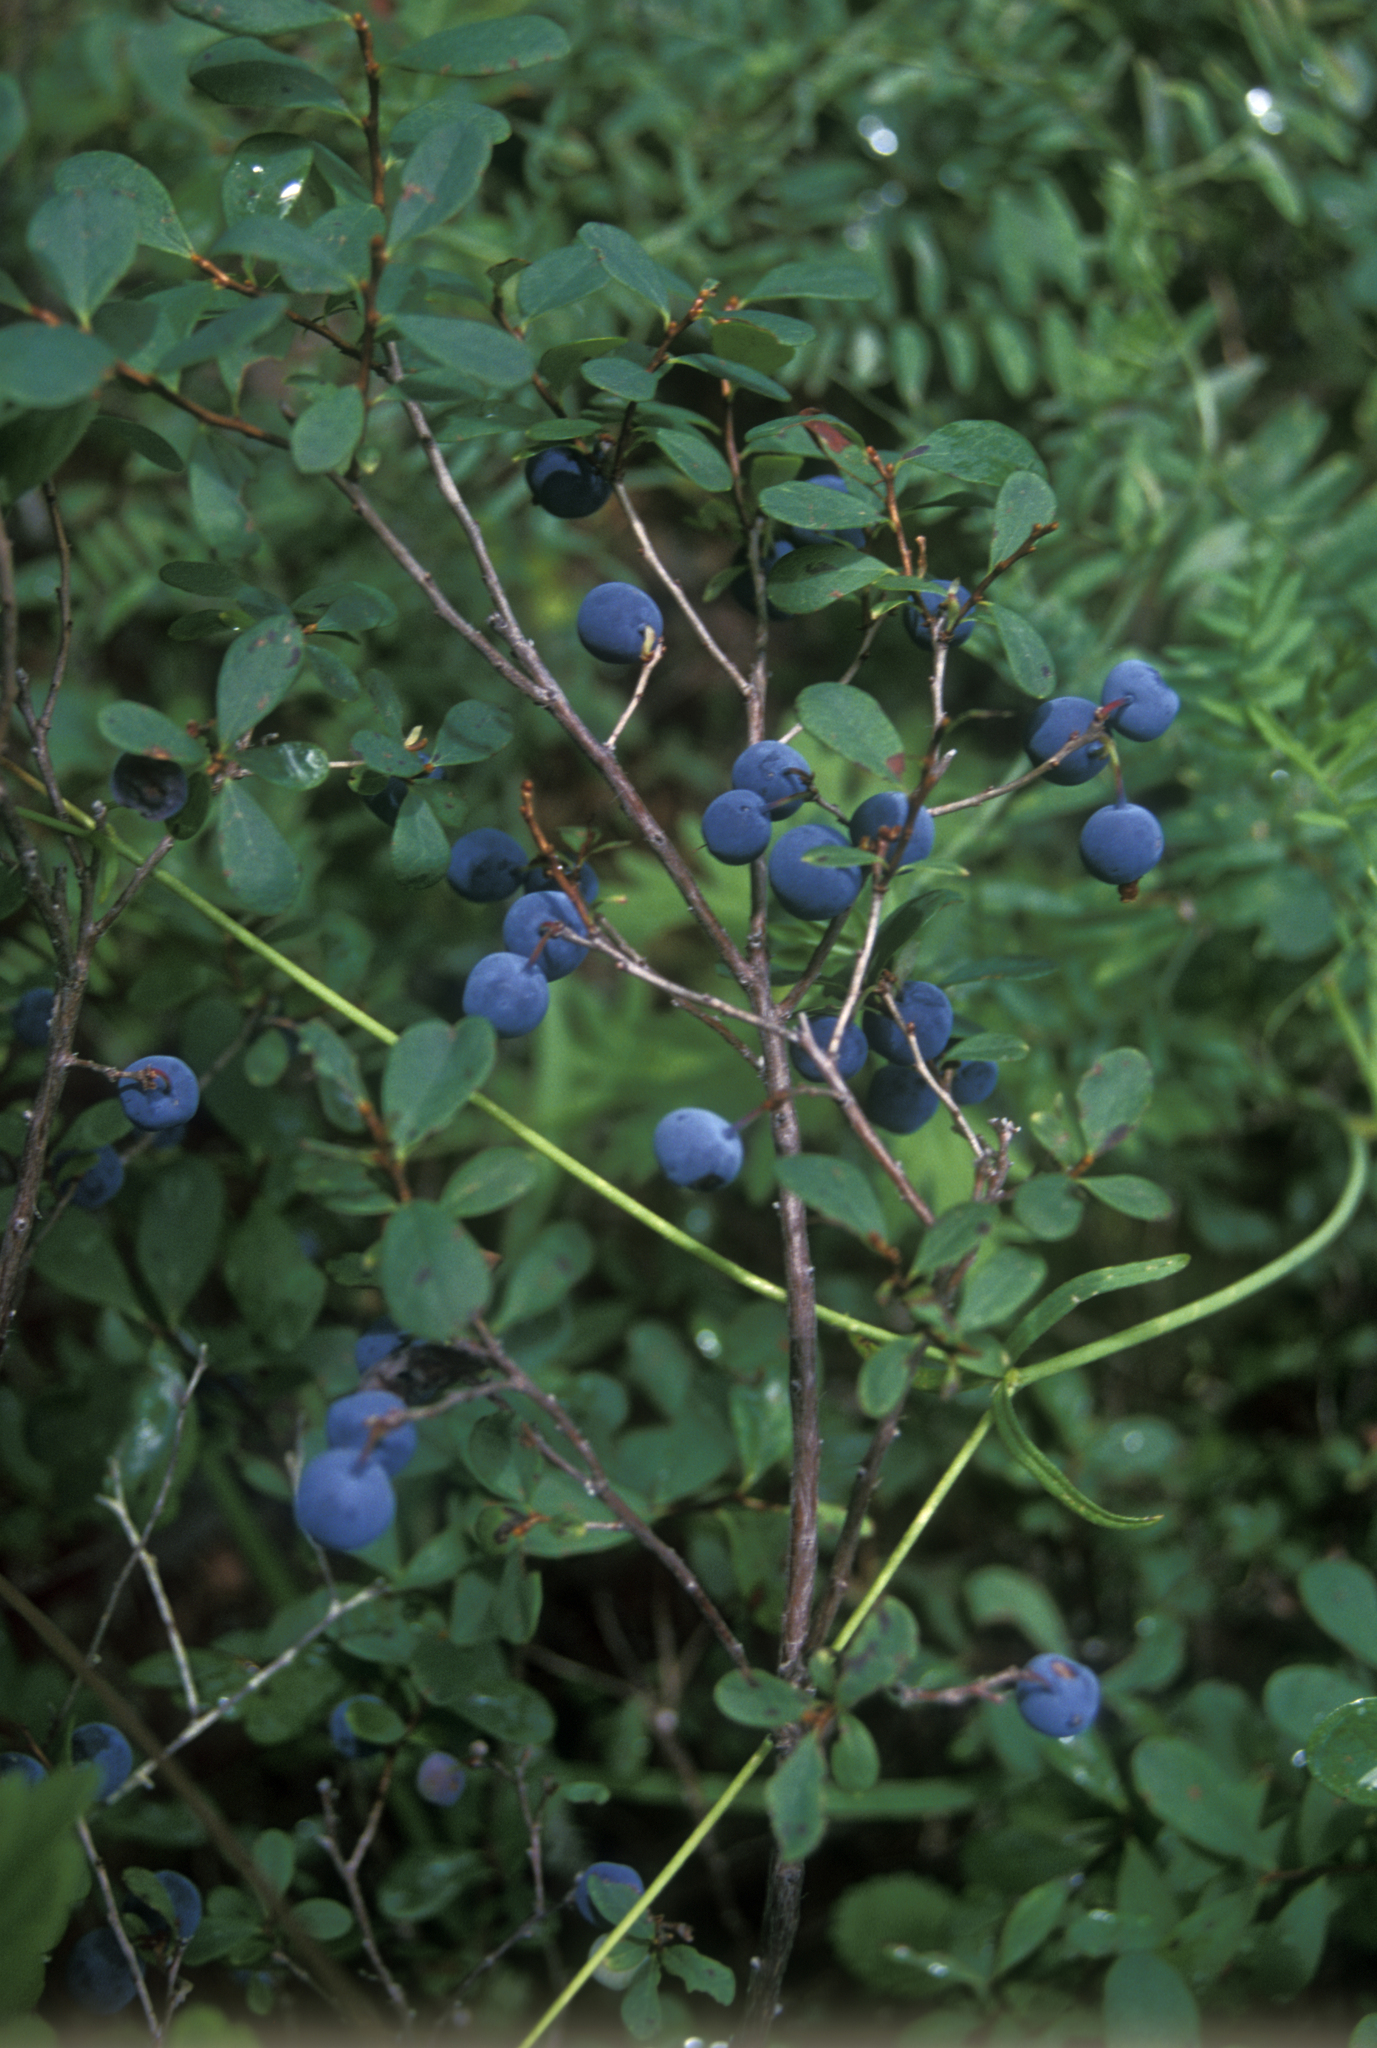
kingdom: Plantae
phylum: Tracheophyta
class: Magnoliopsida
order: Ericales
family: Ericaceae
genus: Vaccinium
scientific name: Vaccinium uliginosum
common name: Bog bilberry
